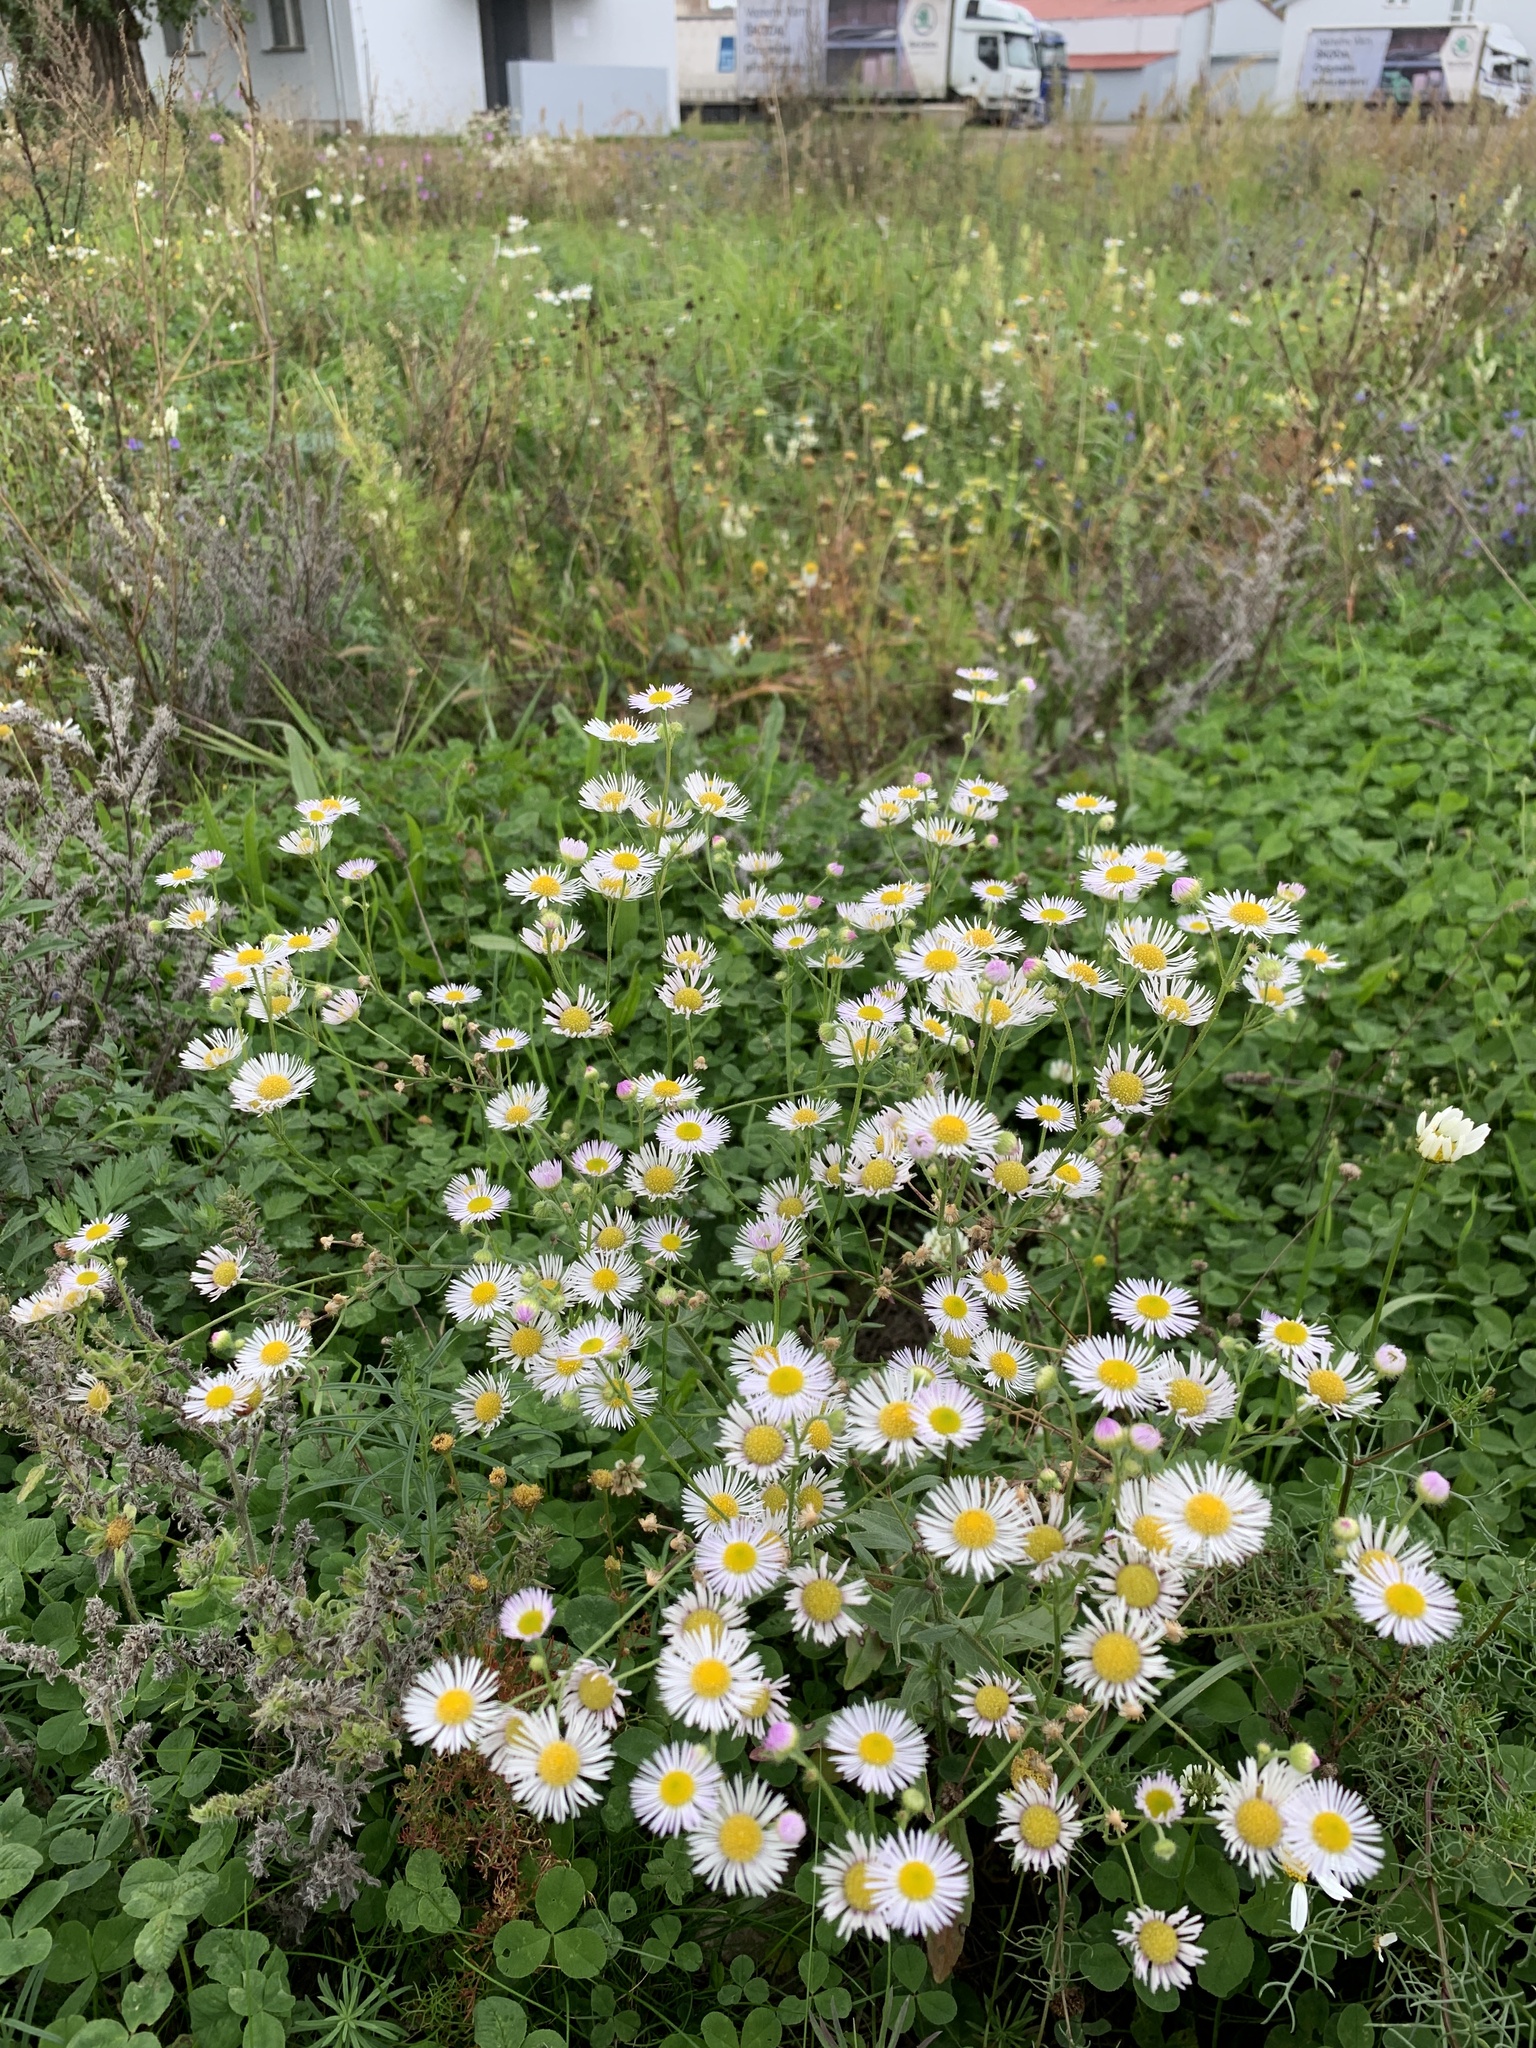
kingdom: Plantae
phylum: Tracheophyta
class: Magnoliopsida
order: Asterales
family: Asteraceae
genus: Erigeron
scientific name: Erigeron annuus
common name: Tall fleabane
